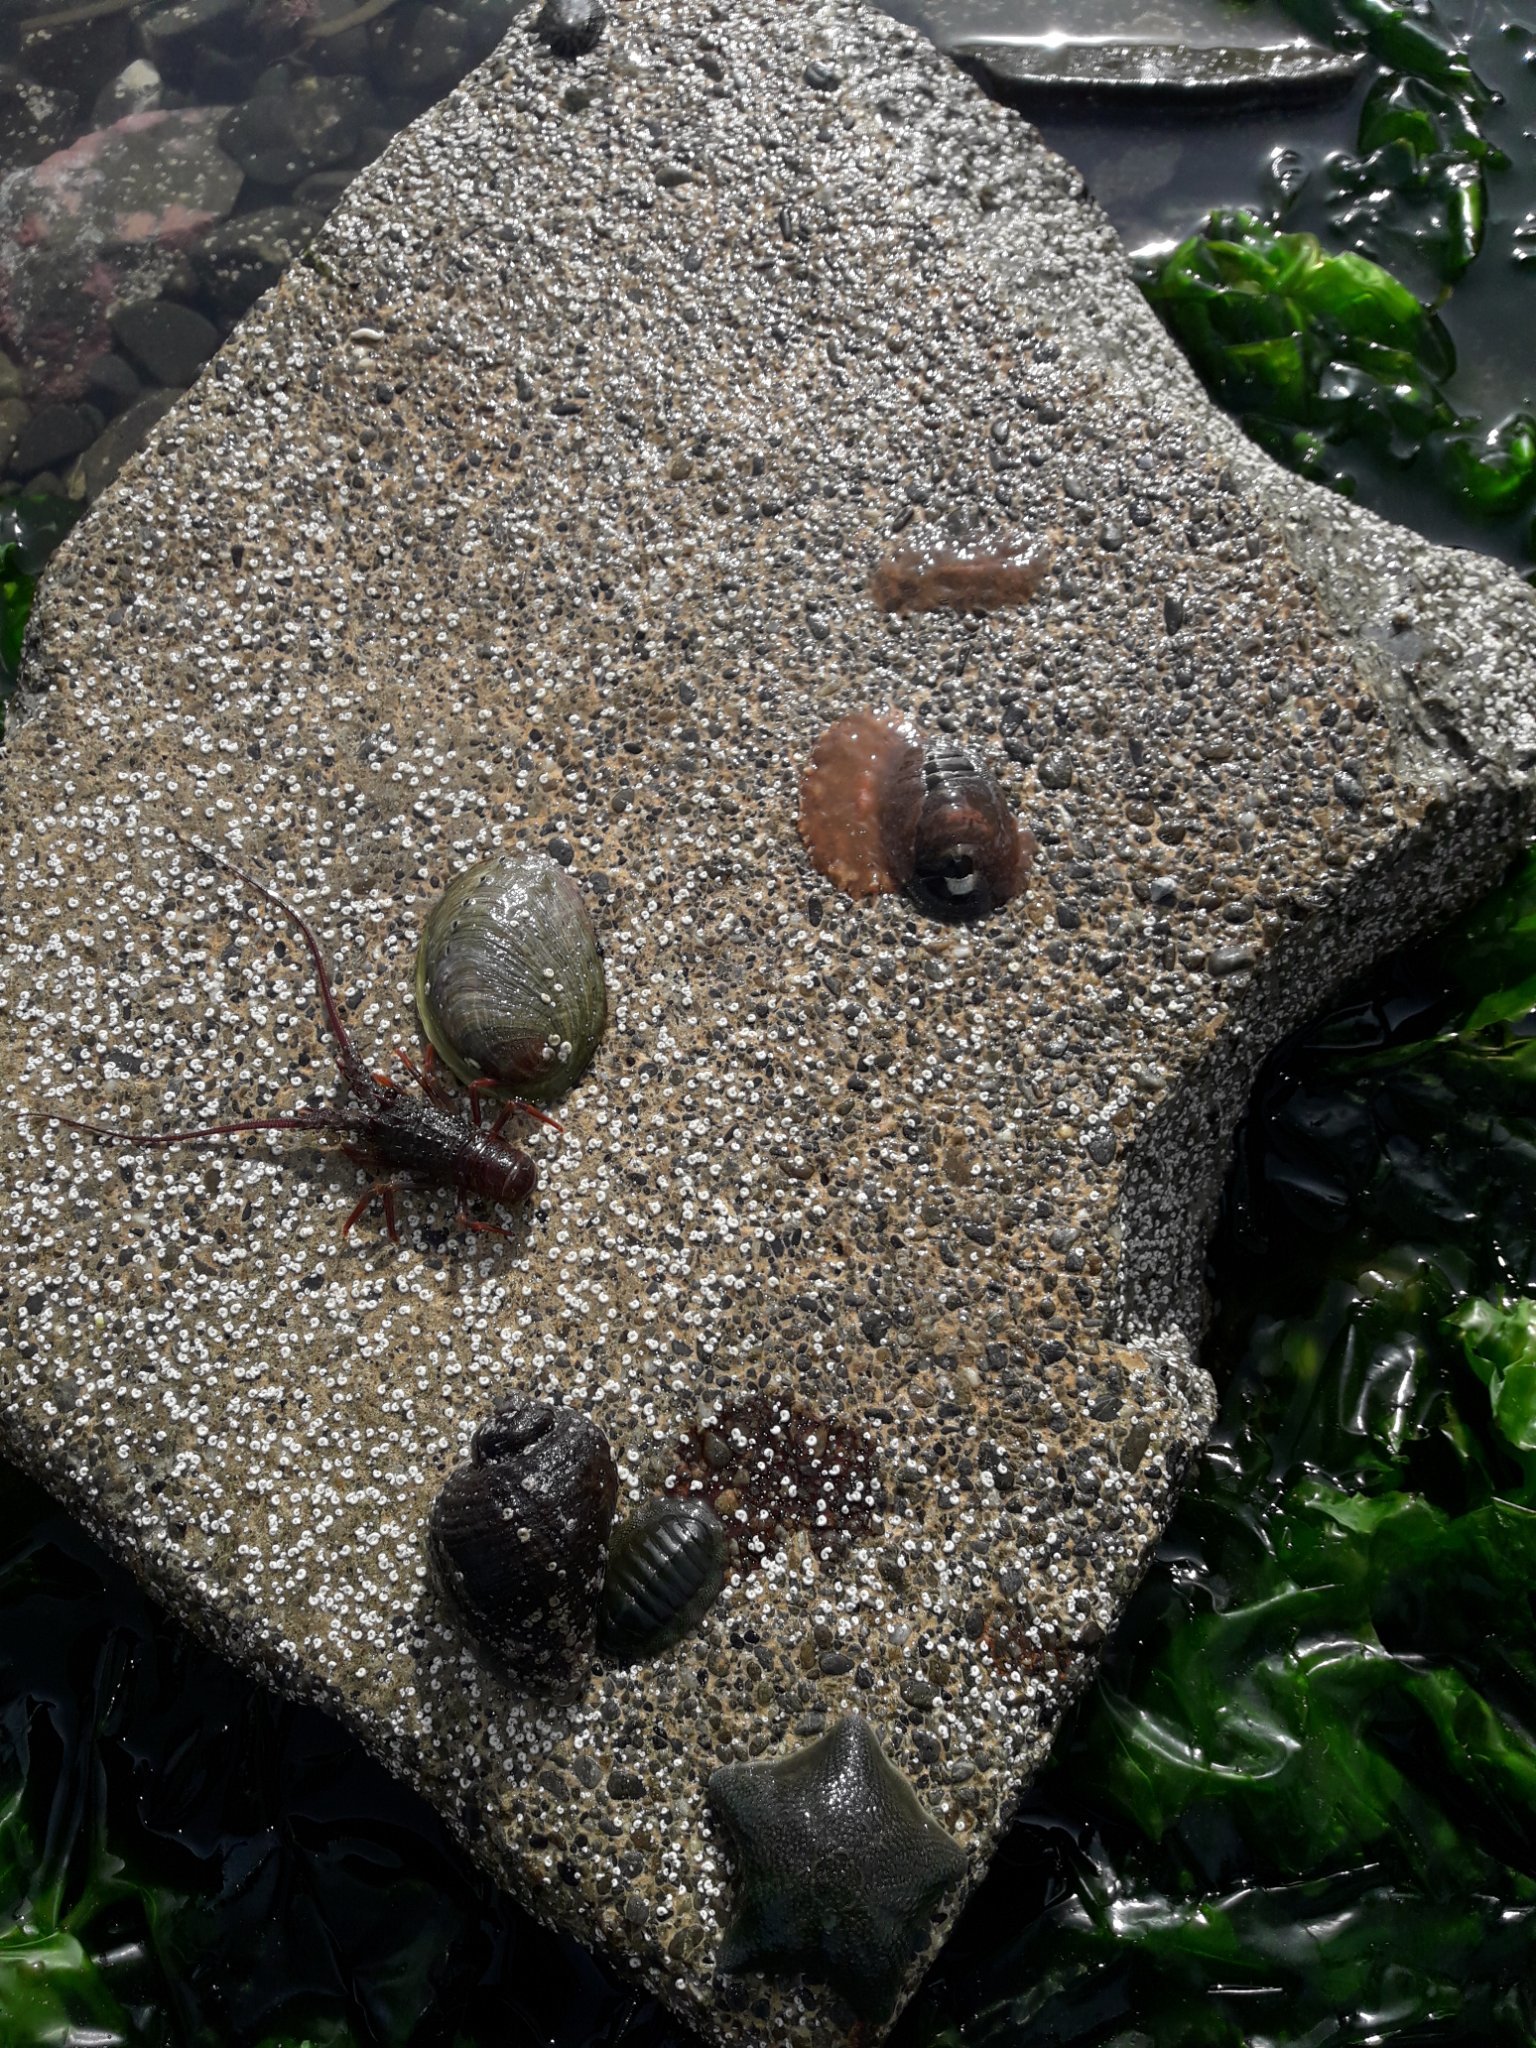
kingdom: Animalia
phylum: Mollusca
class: Gastropoda
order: Lepetellida
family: Haliotidae
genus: Haliotis
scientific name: Haliotis iris
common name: Abalone
